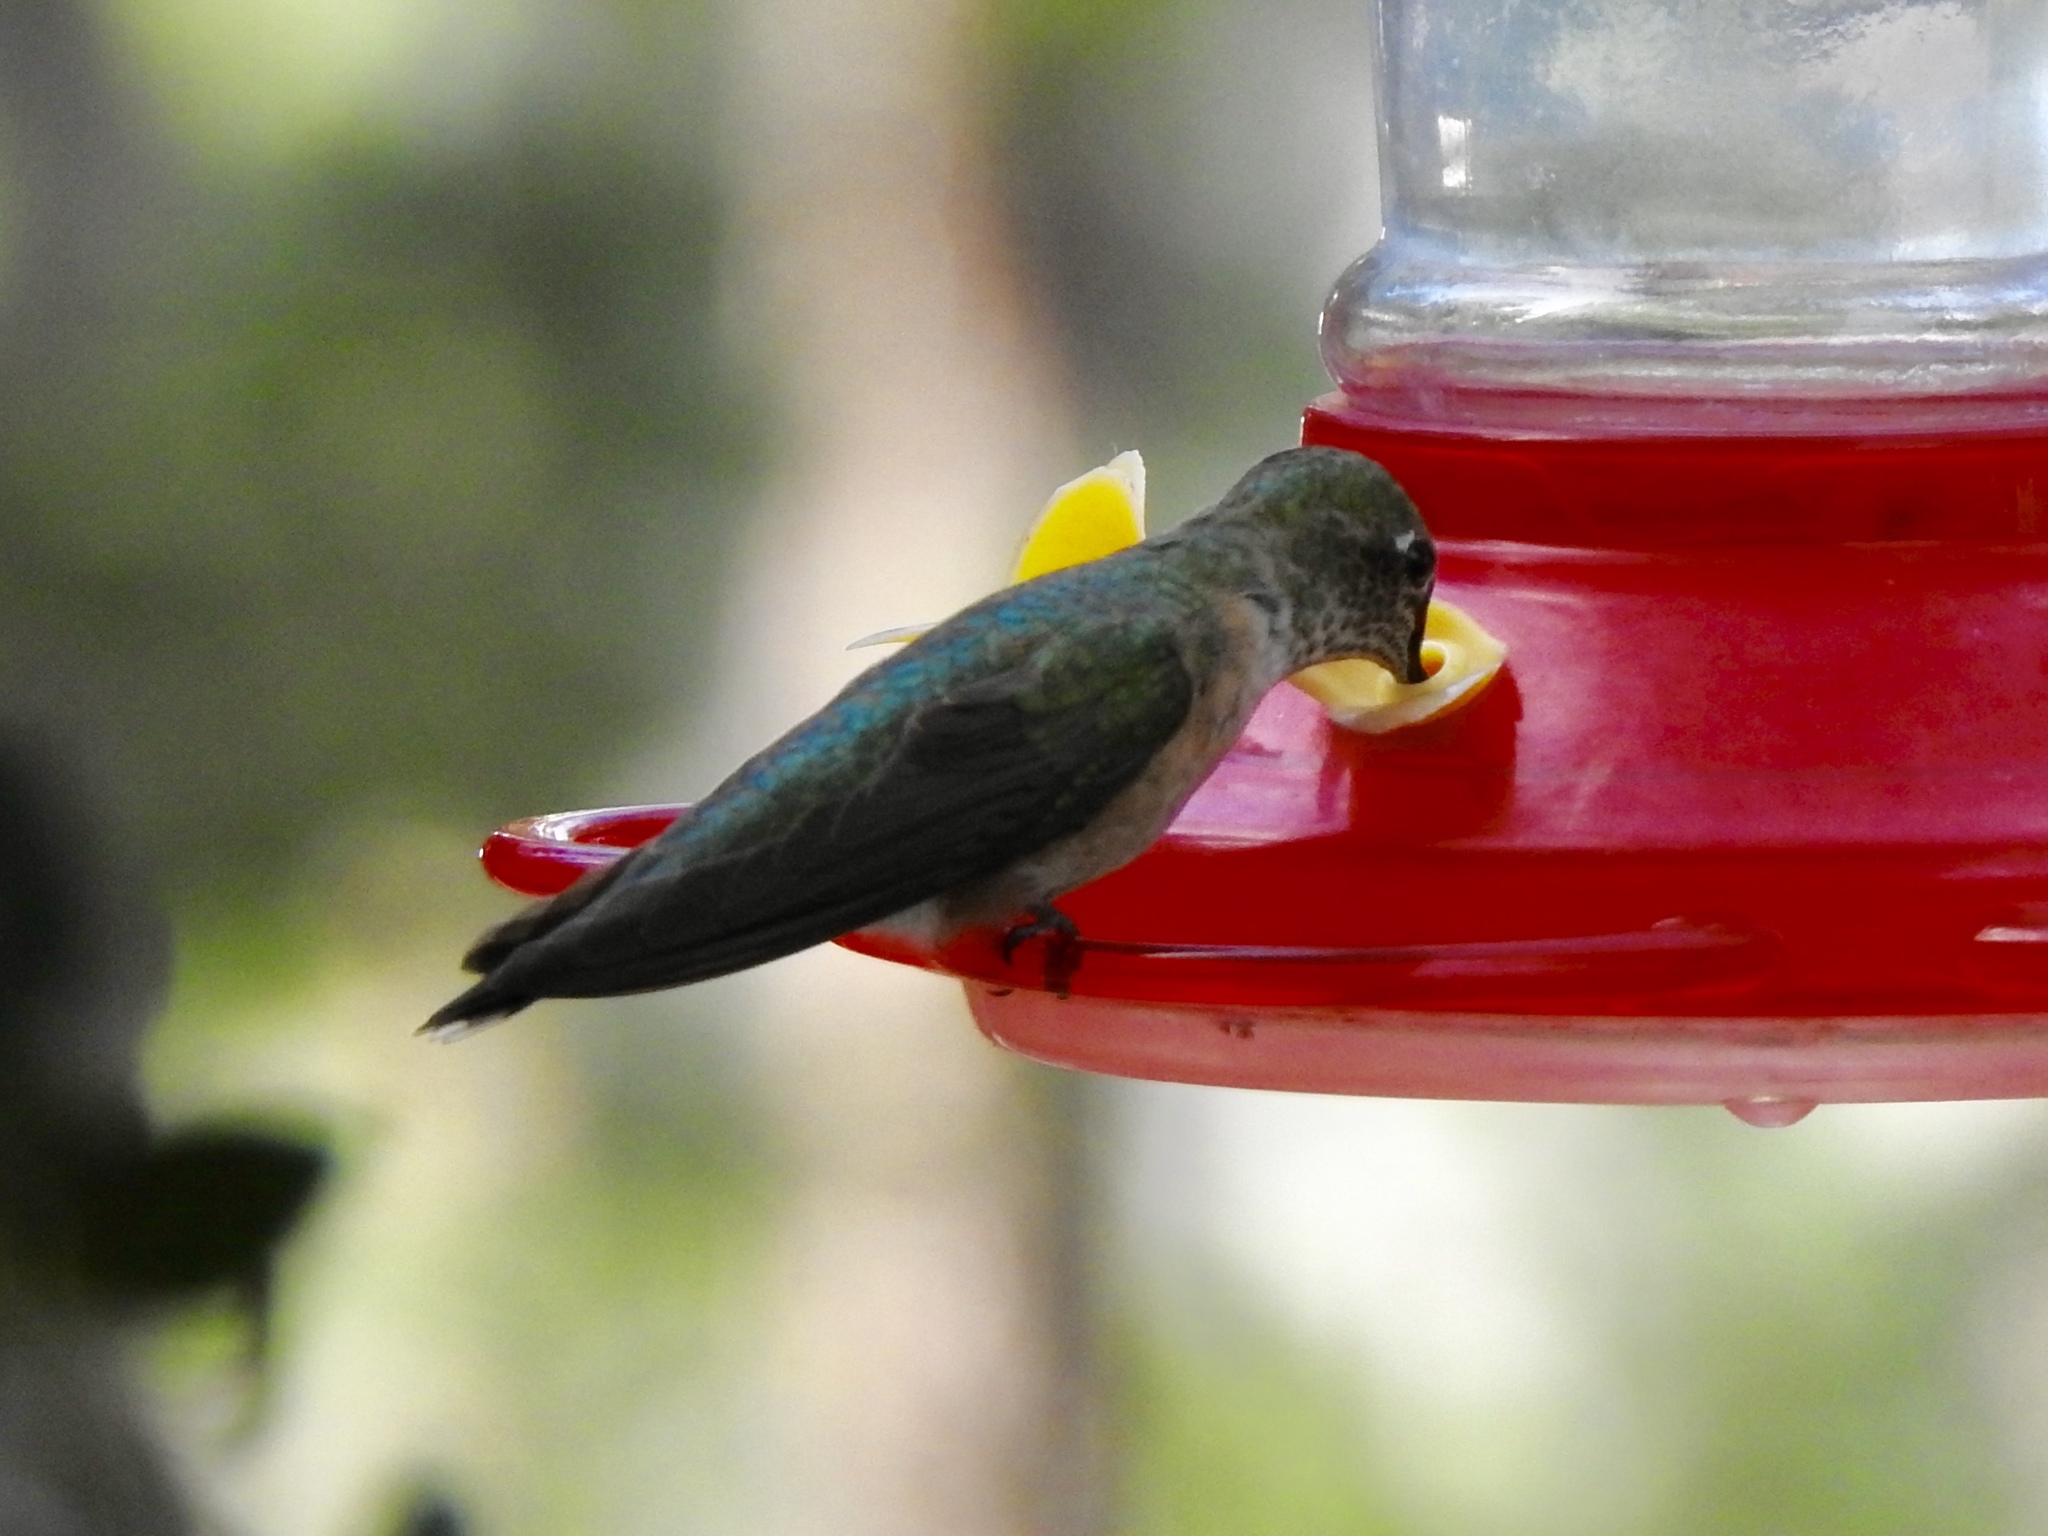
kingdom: Animalia
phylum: Chordata
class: Aves
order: Apodiformes
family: Trochilidae
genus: Selasphorus
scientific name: Selasphorus platycercus
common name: Broad-tailed hummingbird
